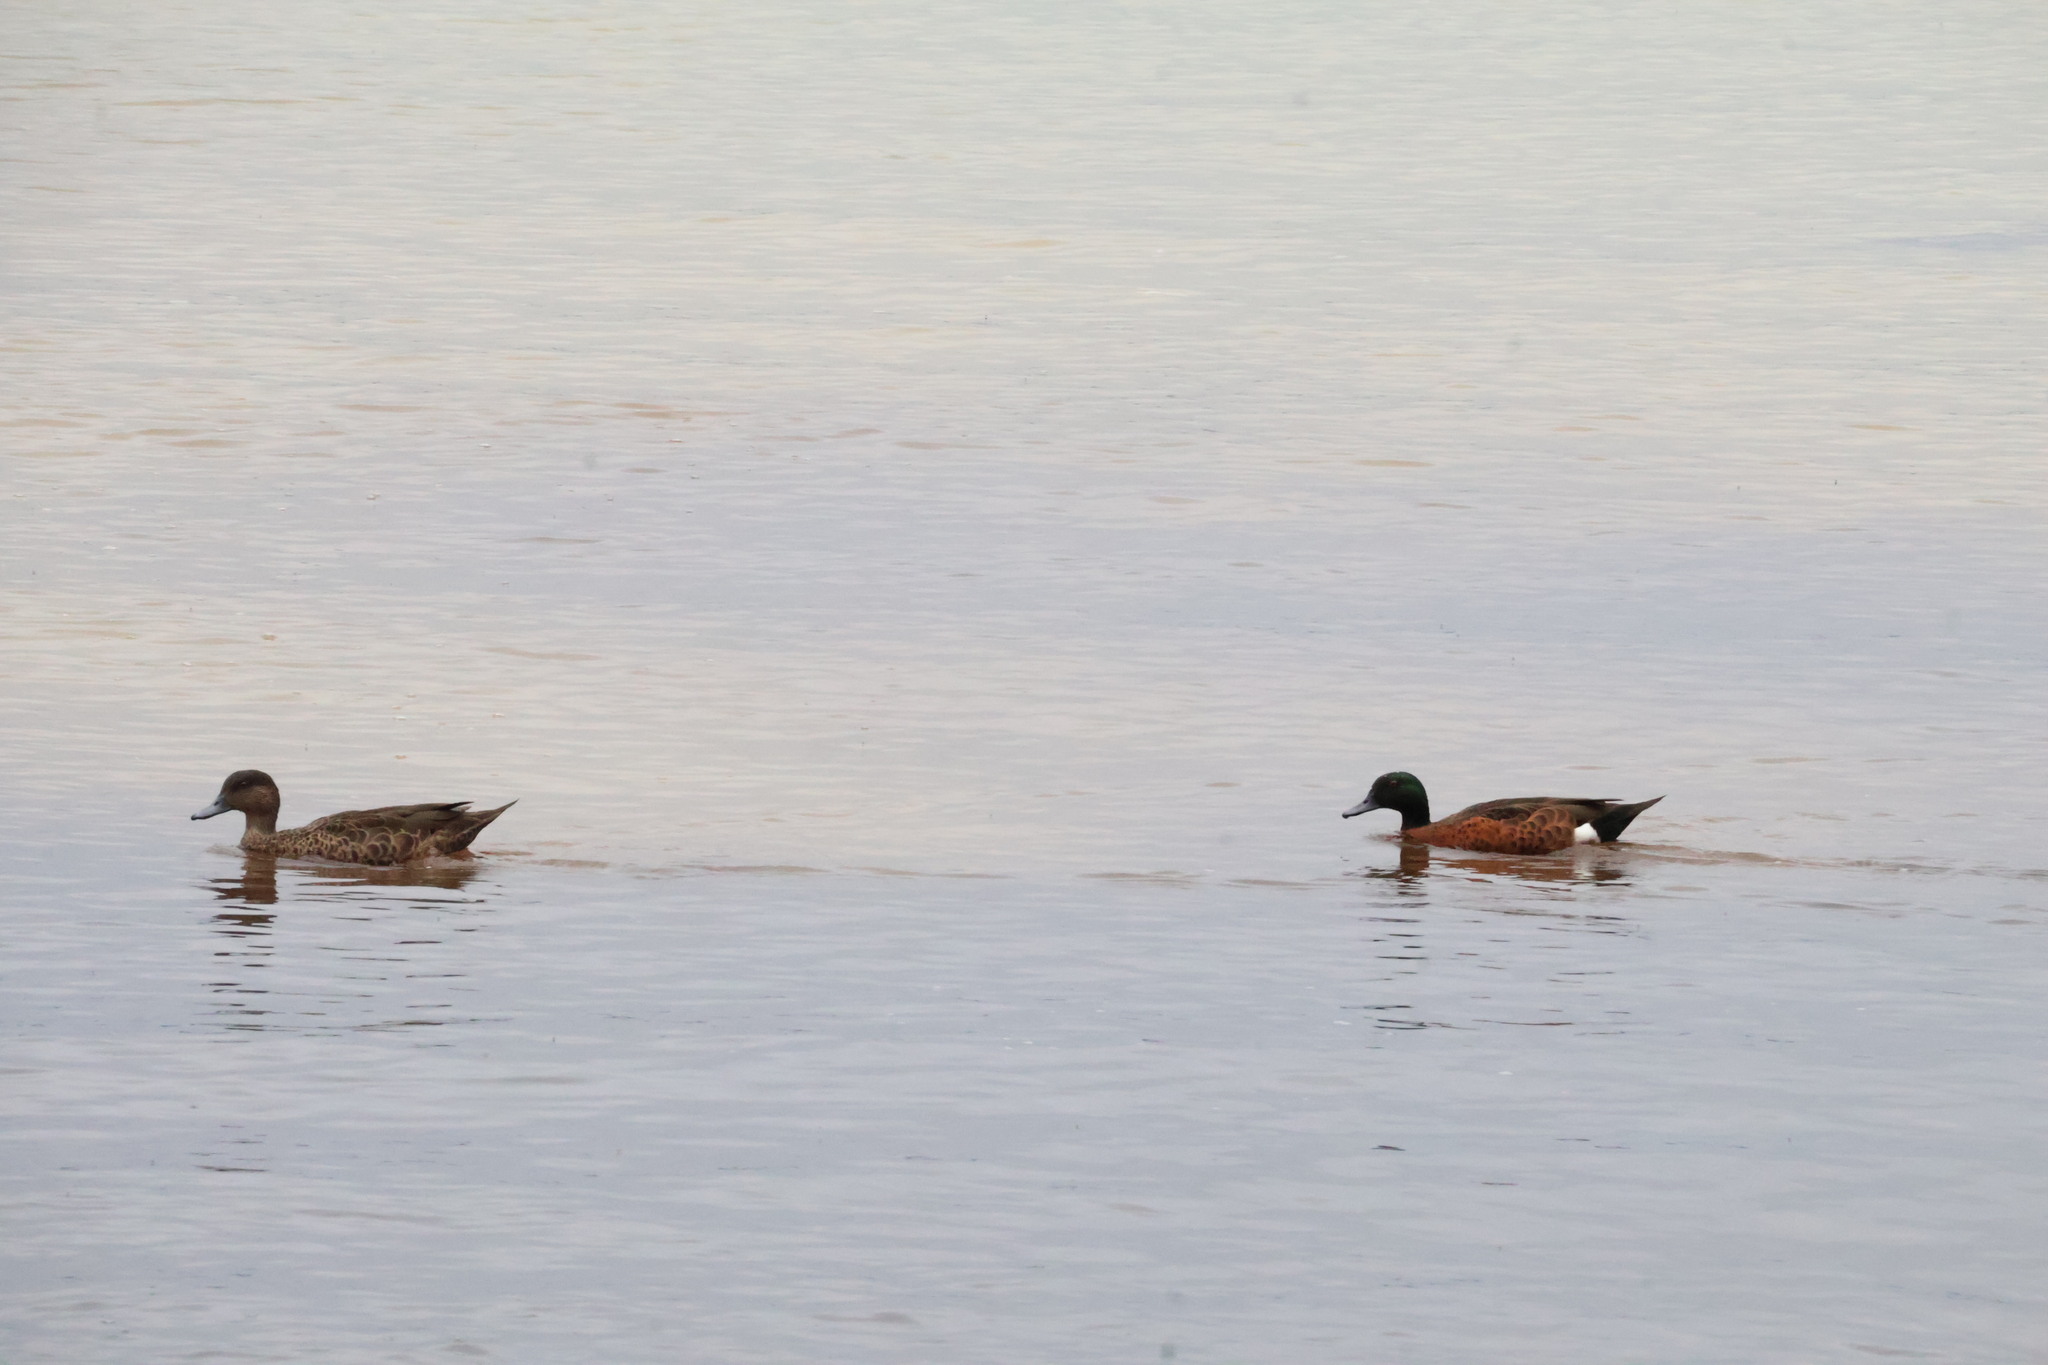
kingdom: Animalia
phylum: Chordata
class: Aves
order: Anseriformes
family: Anatidae
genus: Anas
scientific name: Anas castanea
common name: Chestnut teal
